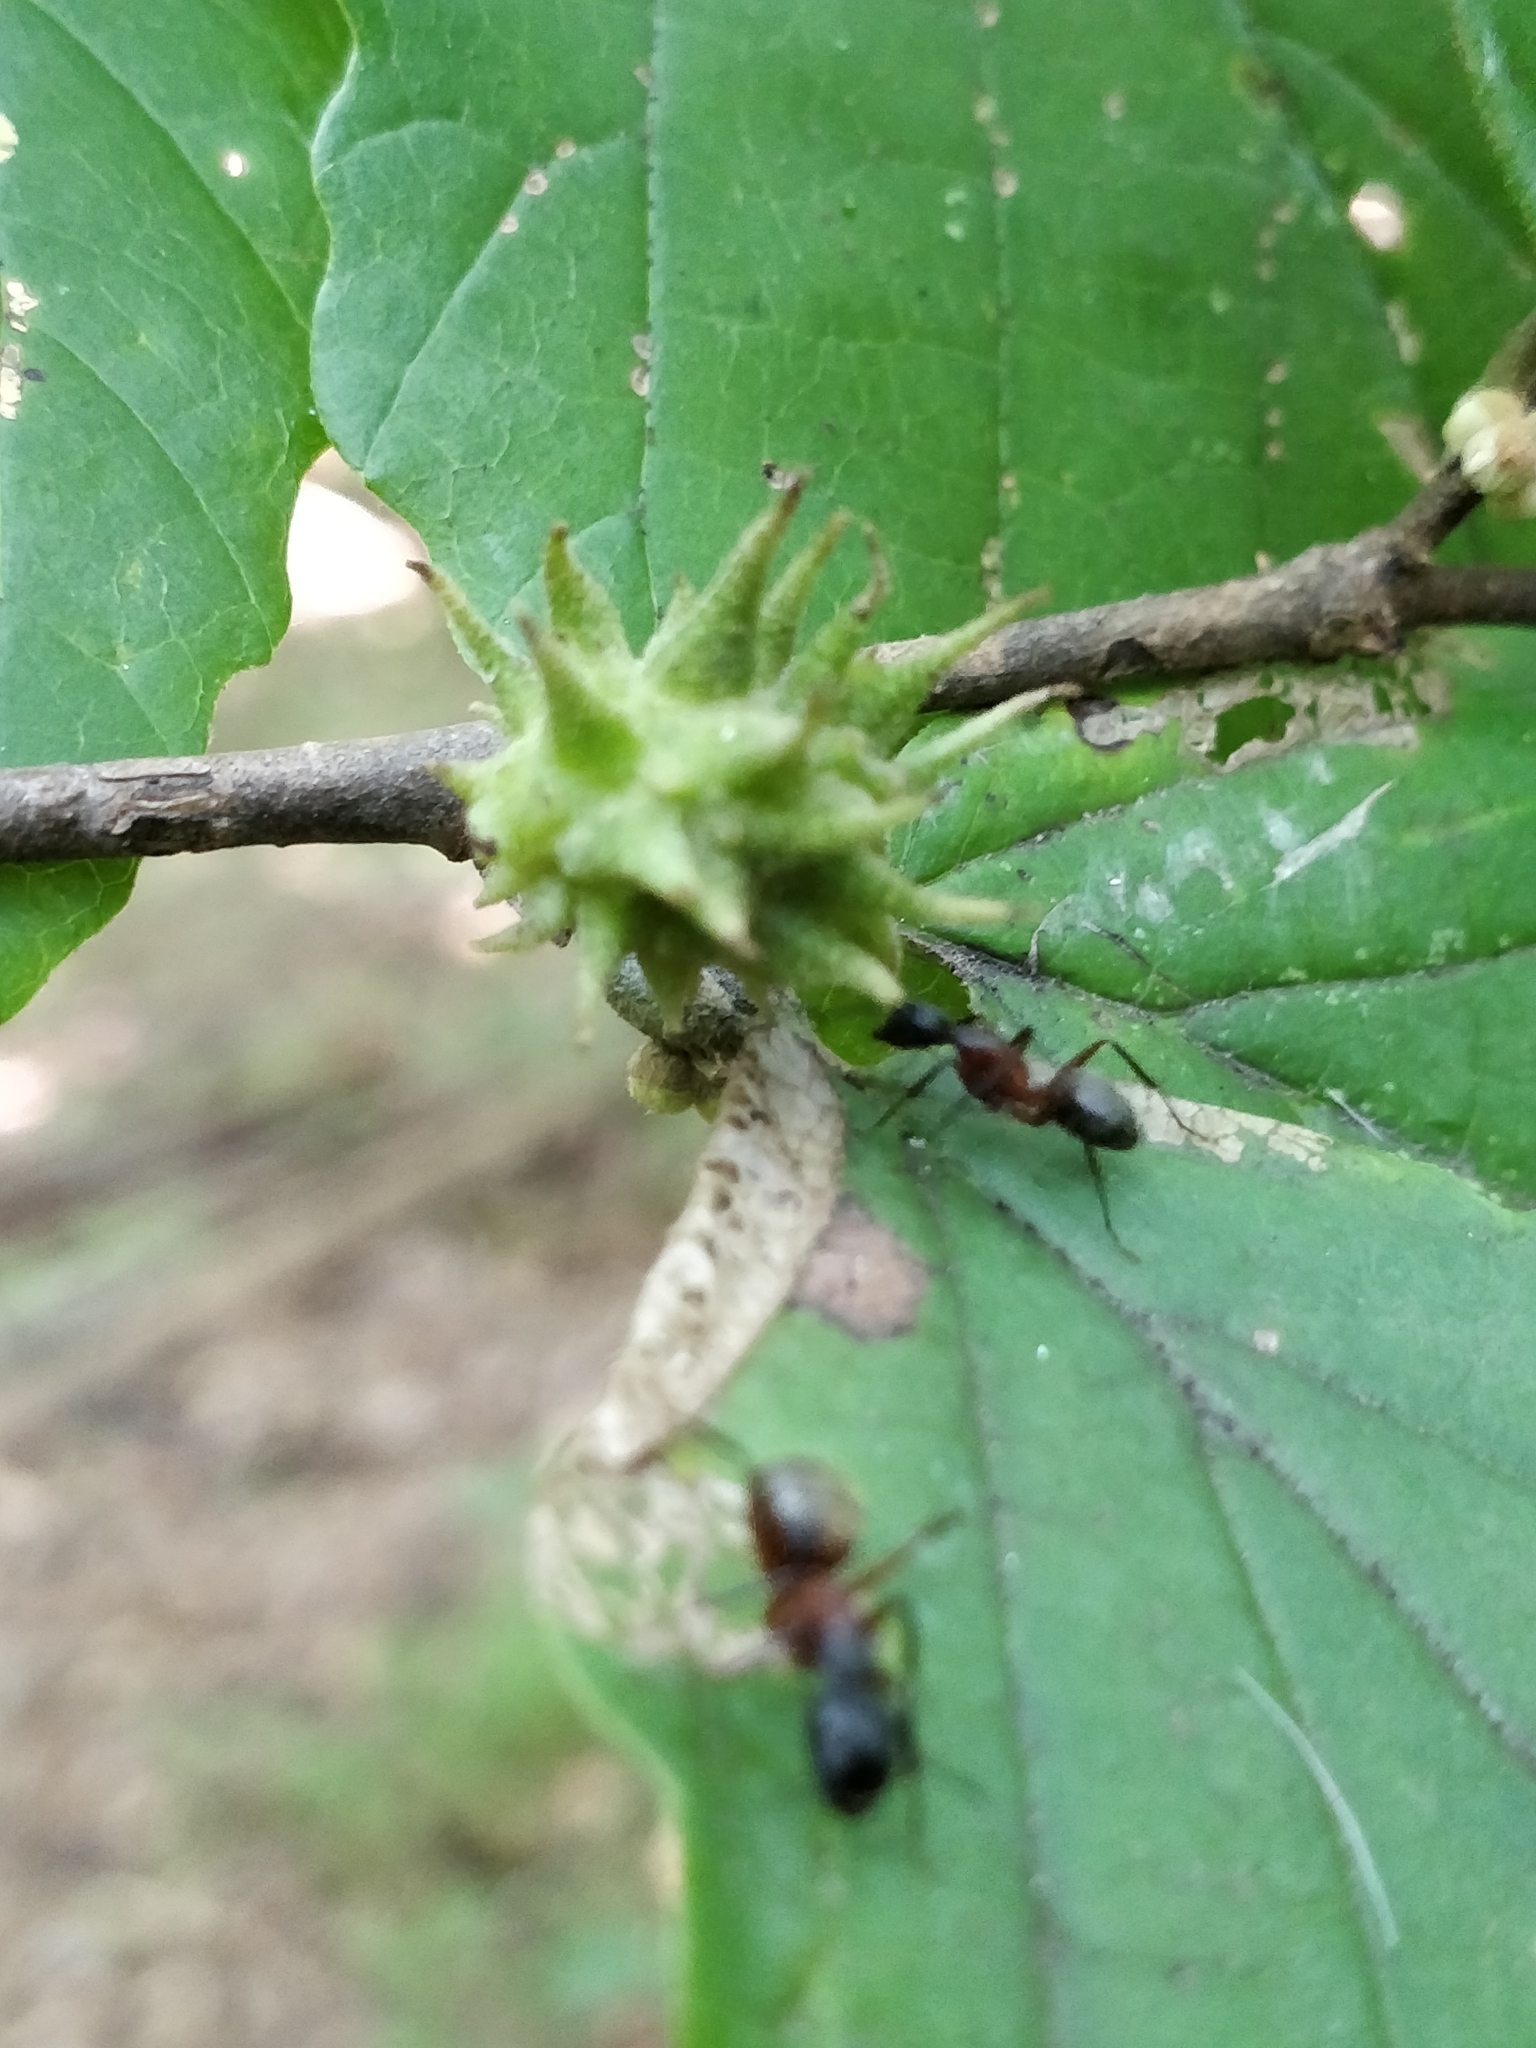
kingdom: Animalia
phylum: Arthropoda
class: Insecta
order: Hemiptera
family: Aphididae
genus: Hamamelistes
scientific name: Hamamelistes spinosus
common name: Witch hazel gall aphid
